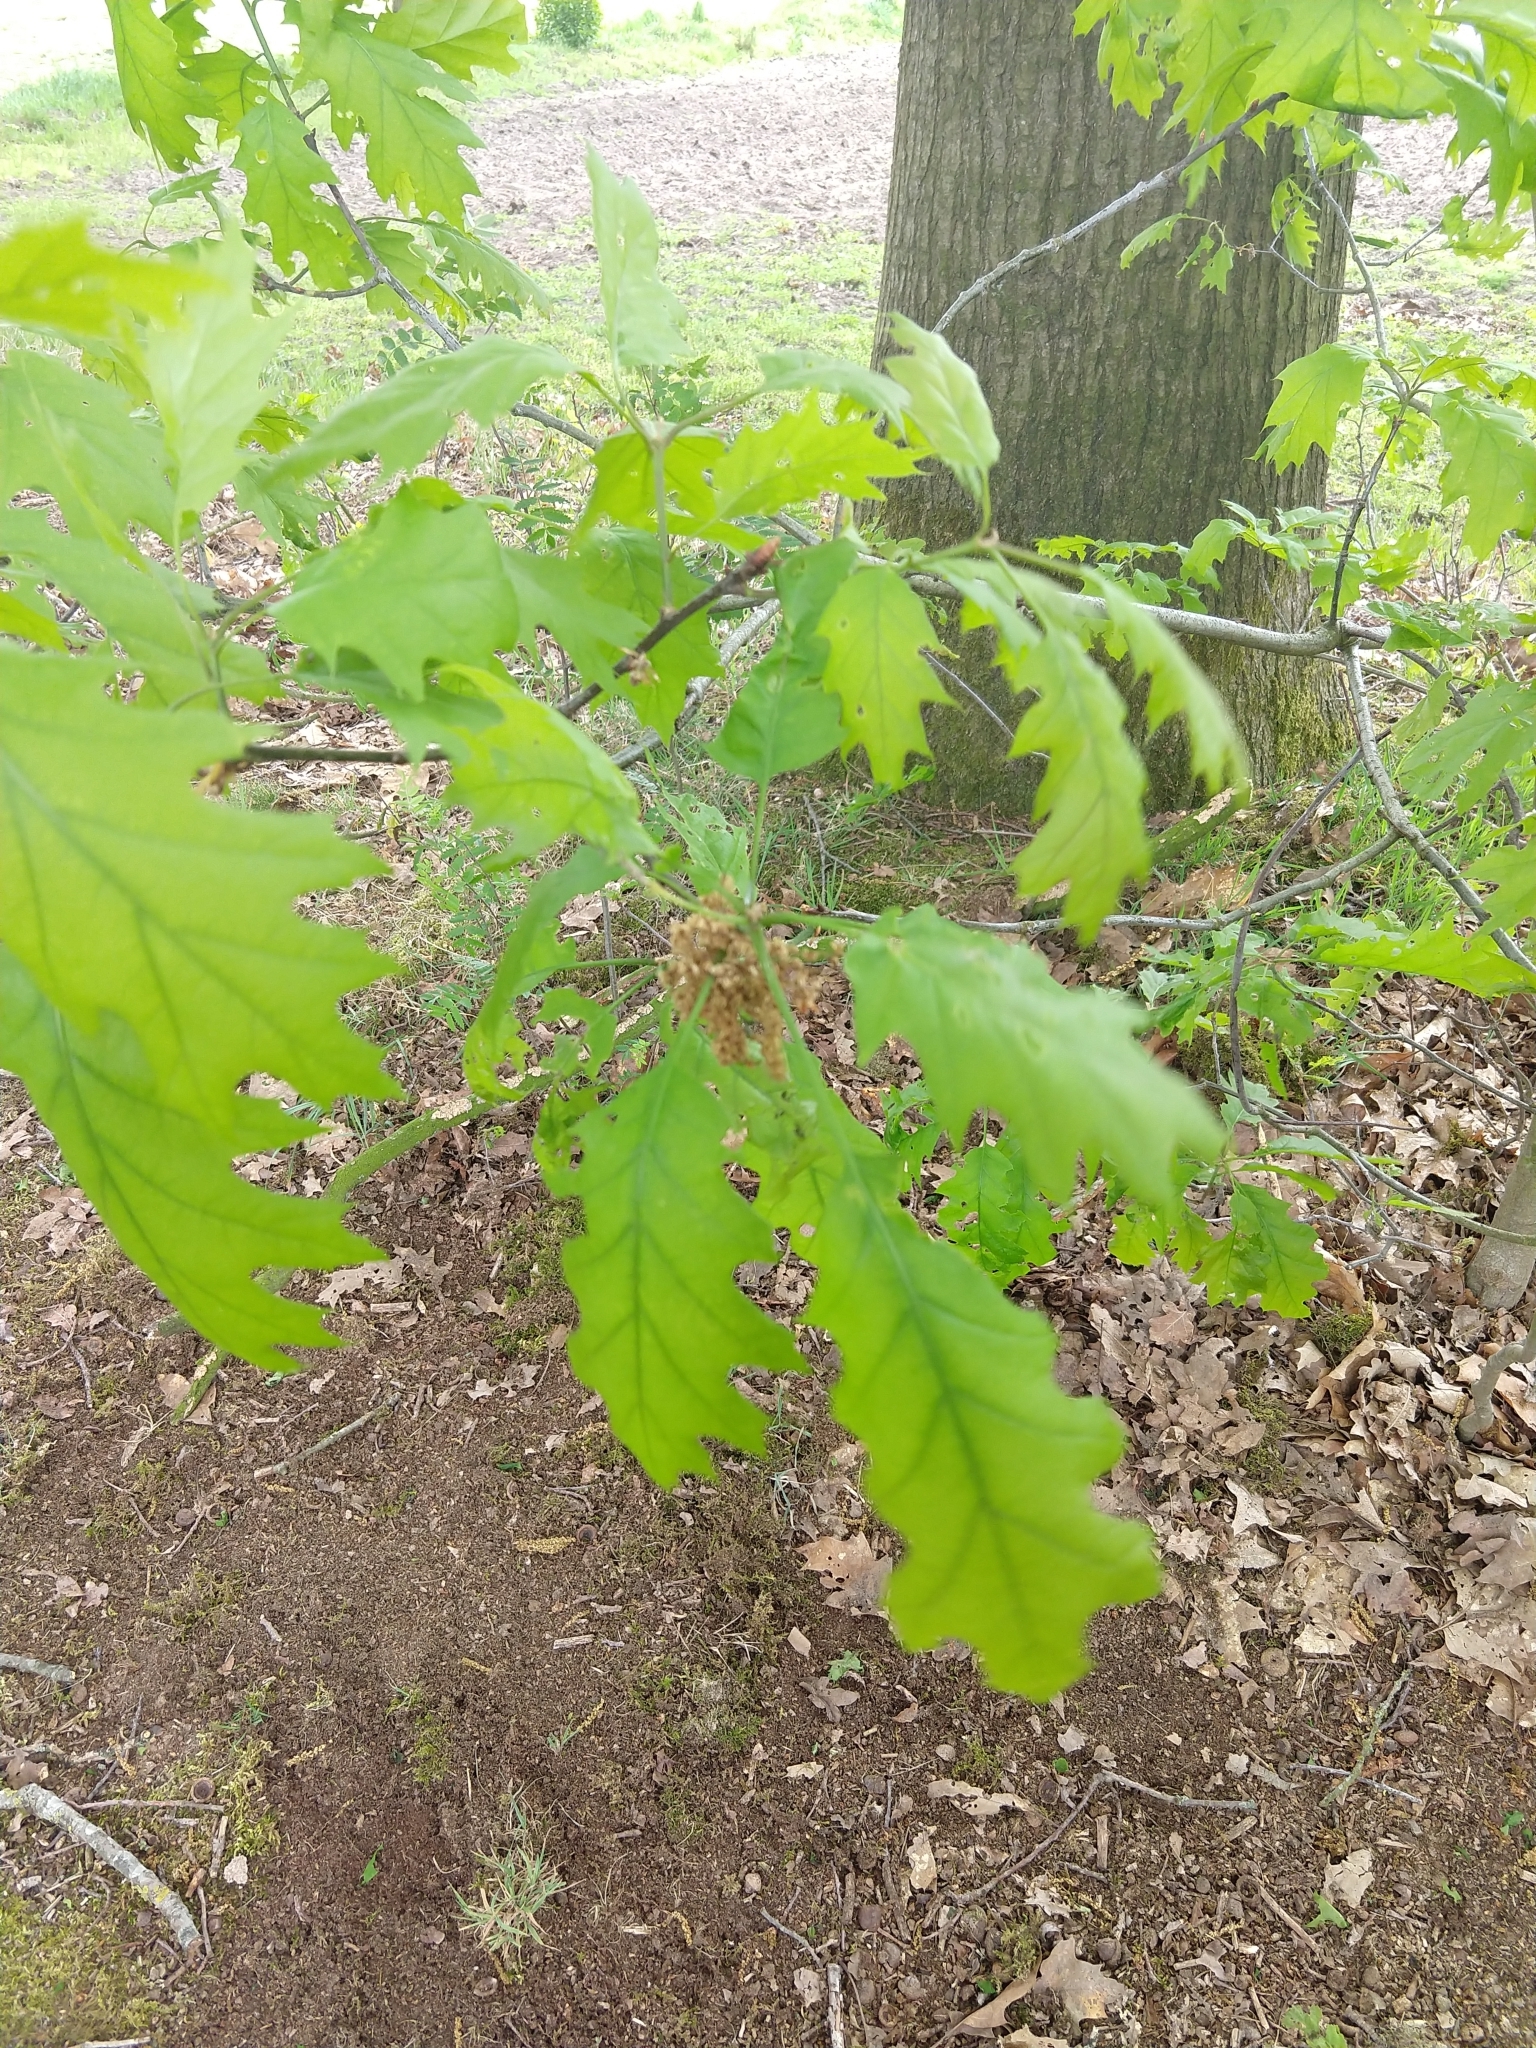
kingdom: Plantae
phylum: Tracheophyta
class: Magnoliopsida
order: Fagales
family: Fagaceae
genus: Quercus
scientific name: Quercus rubra
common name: Red oak
